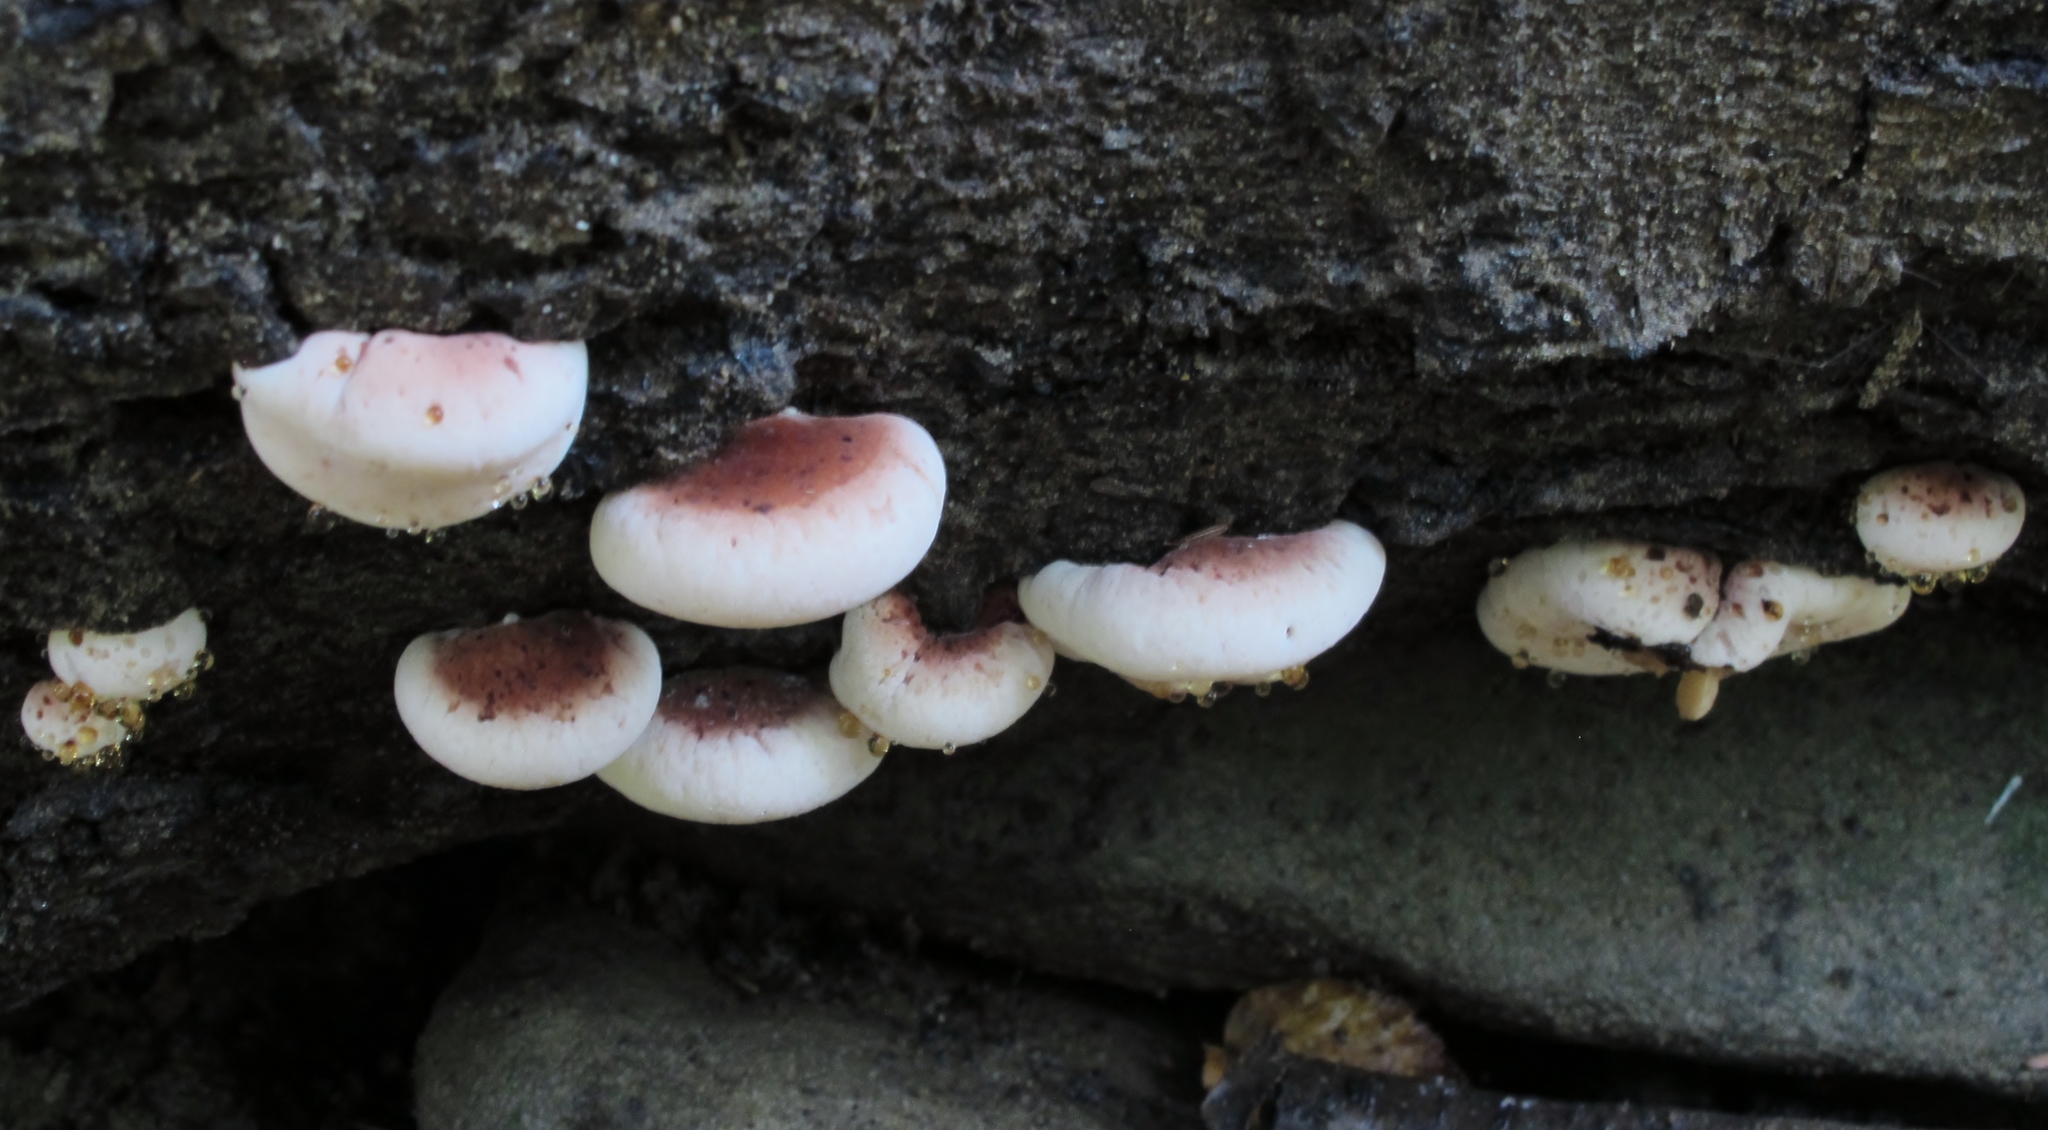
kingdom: Fungi
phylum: Basidiomycota
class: Agaricomycetes
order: Polyporales
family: Ischnodermataceae
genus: Ischnoderma
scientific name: Ischnoderma resinosum
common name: Resinous polypore
